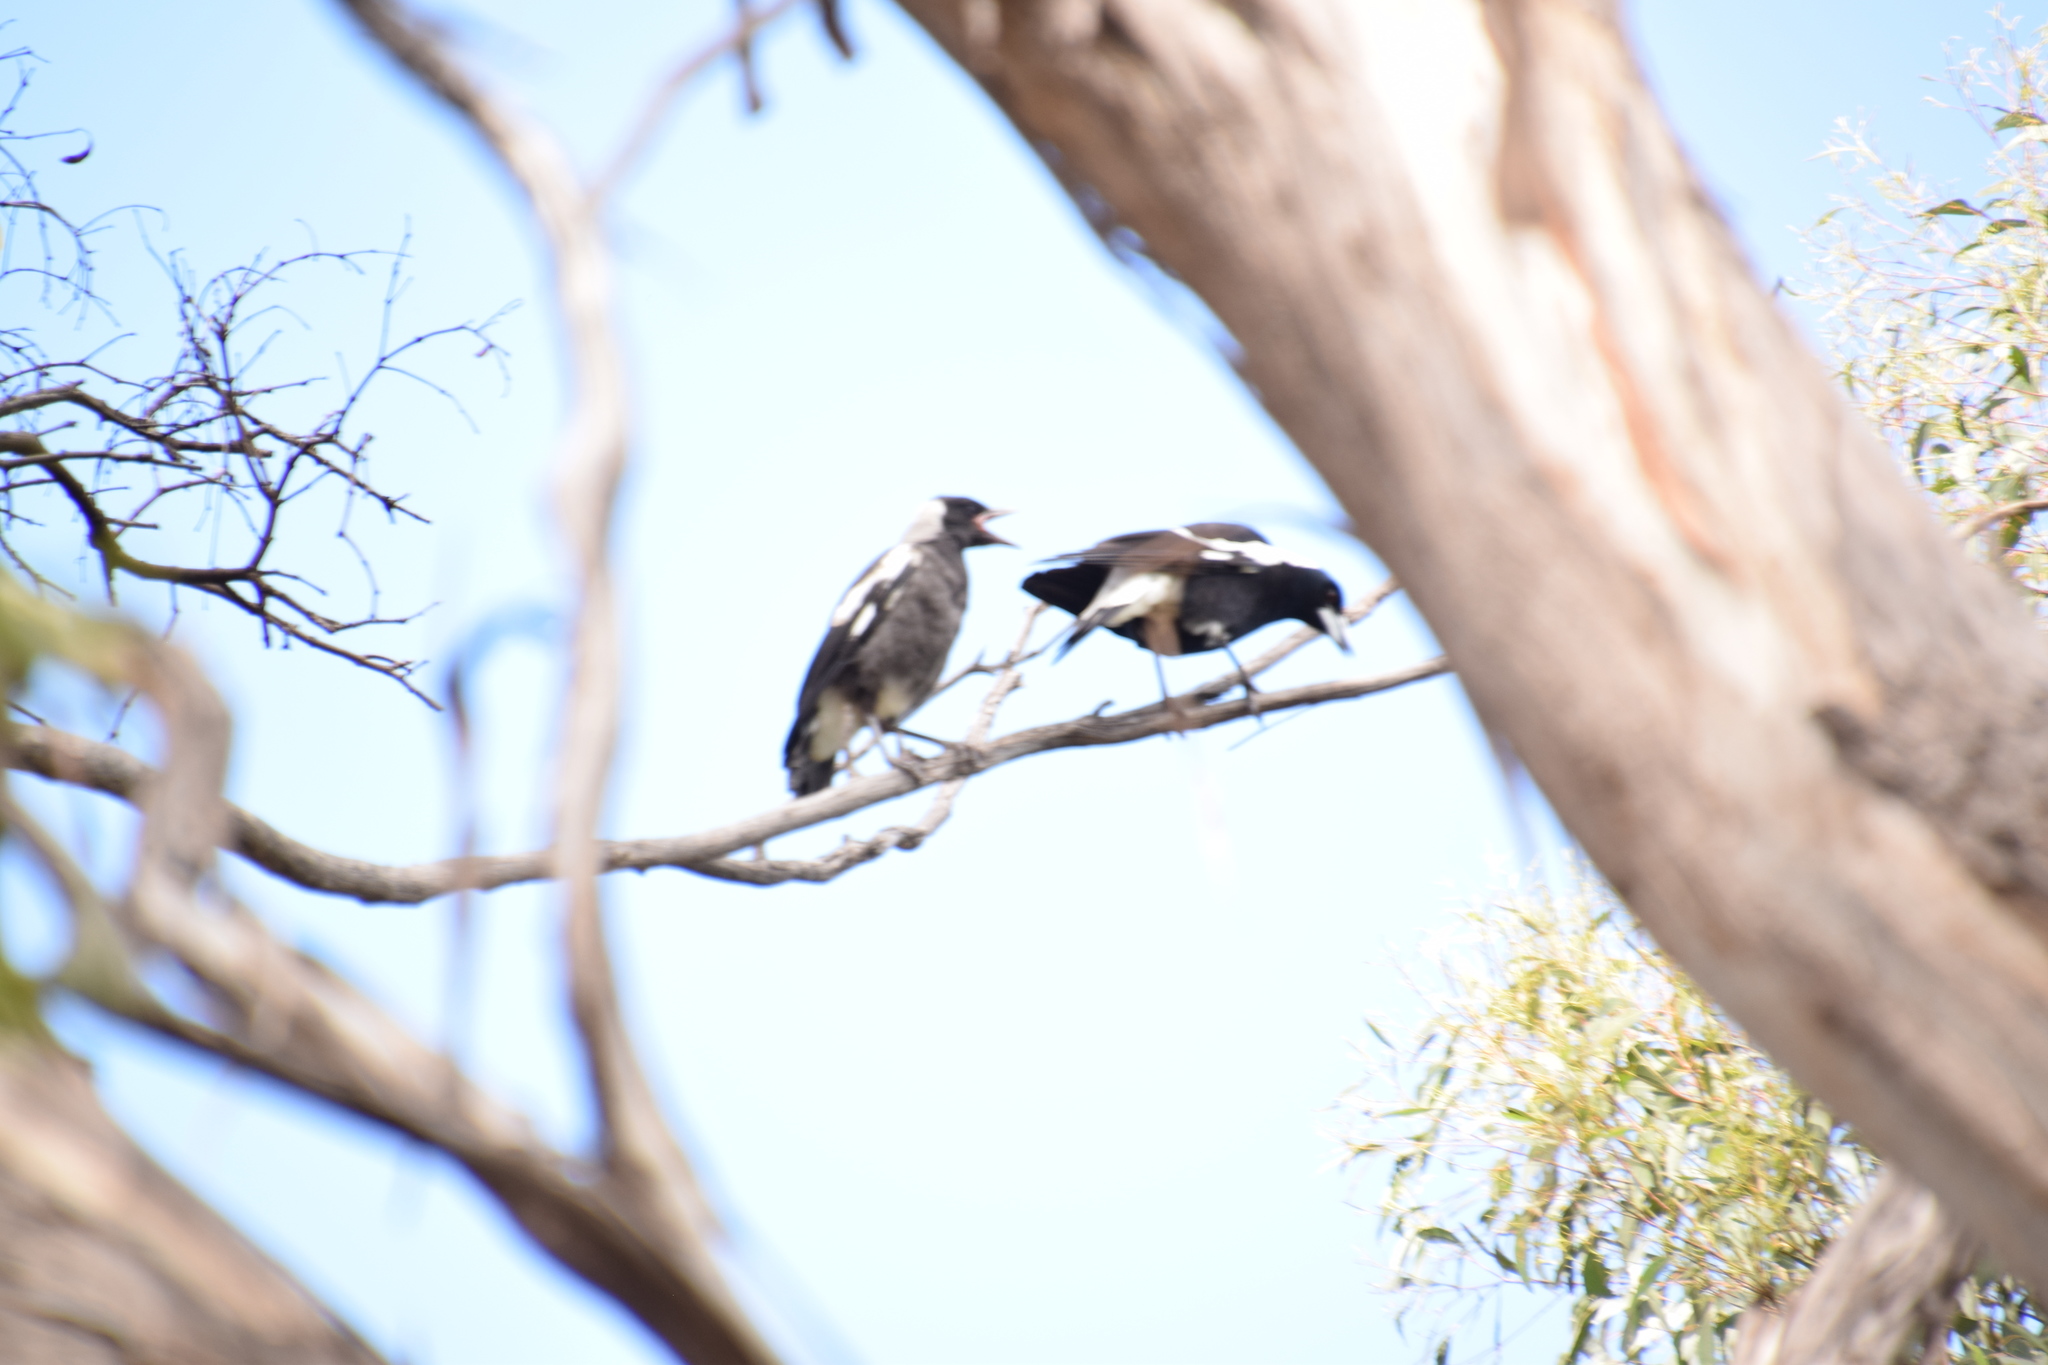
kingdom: Animalia
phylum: Chordata
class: Aves
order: Passeriformes
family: Cracticidae
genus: Gymnorhina
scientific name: Gymnorhina tibicen
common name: Australian magpie
